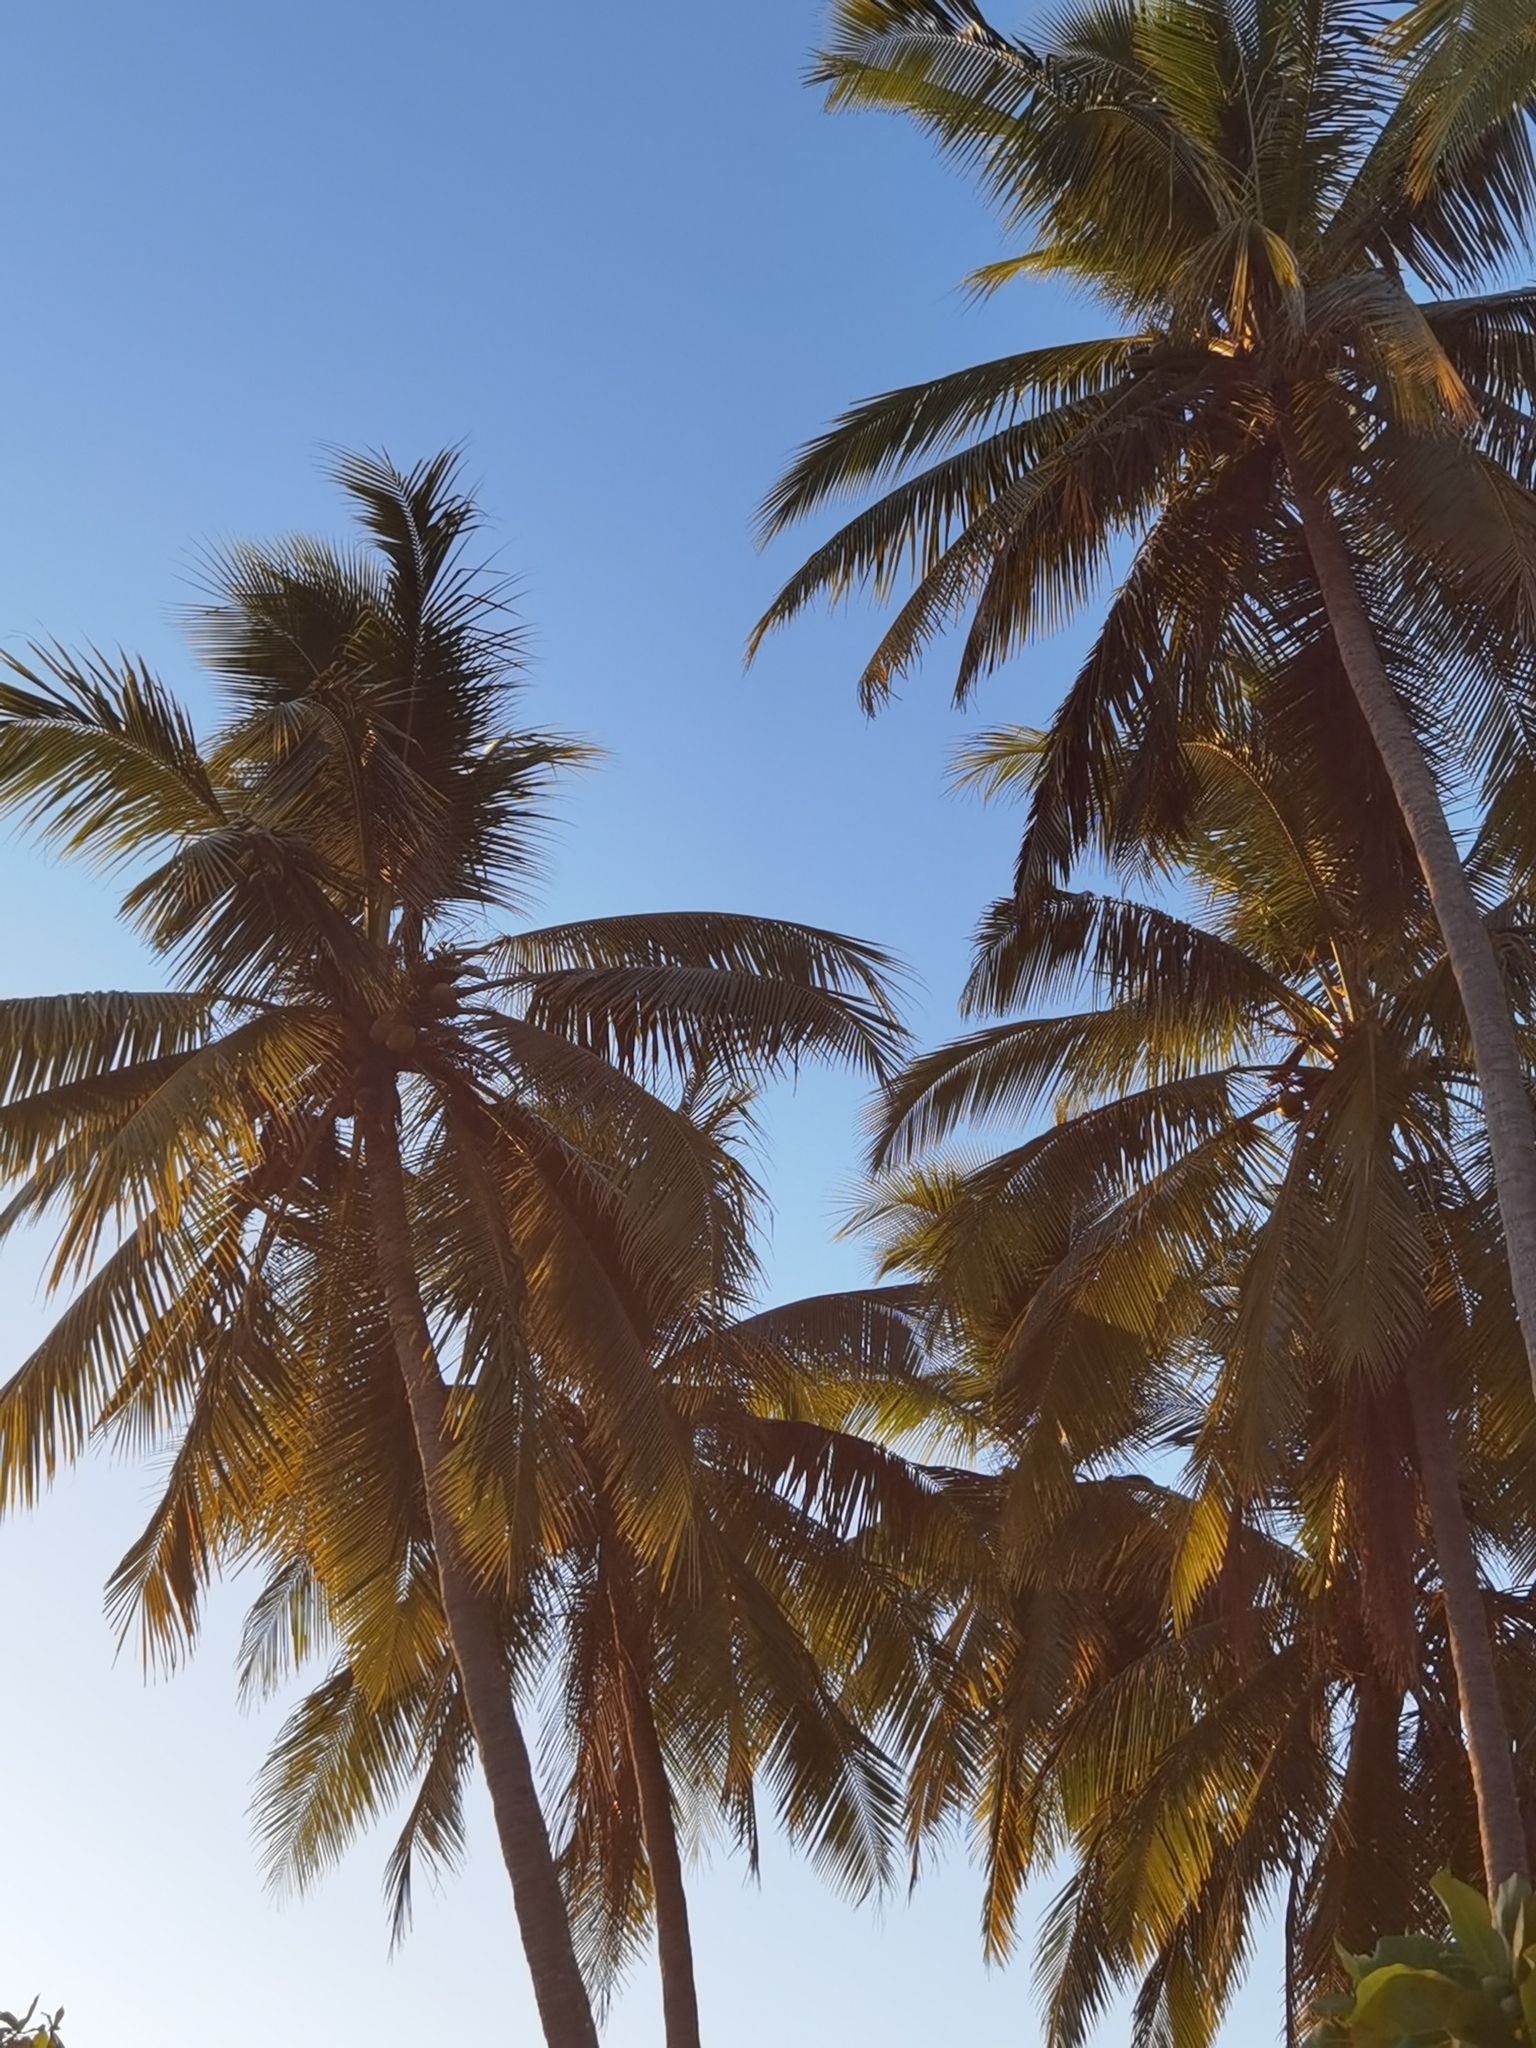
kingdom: Plantae
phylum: Tracheophyta
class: Liliopsida
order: Arecales
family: Arecaceae
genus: Cocos
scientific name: Cocos nucifera
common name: Coconut palm
